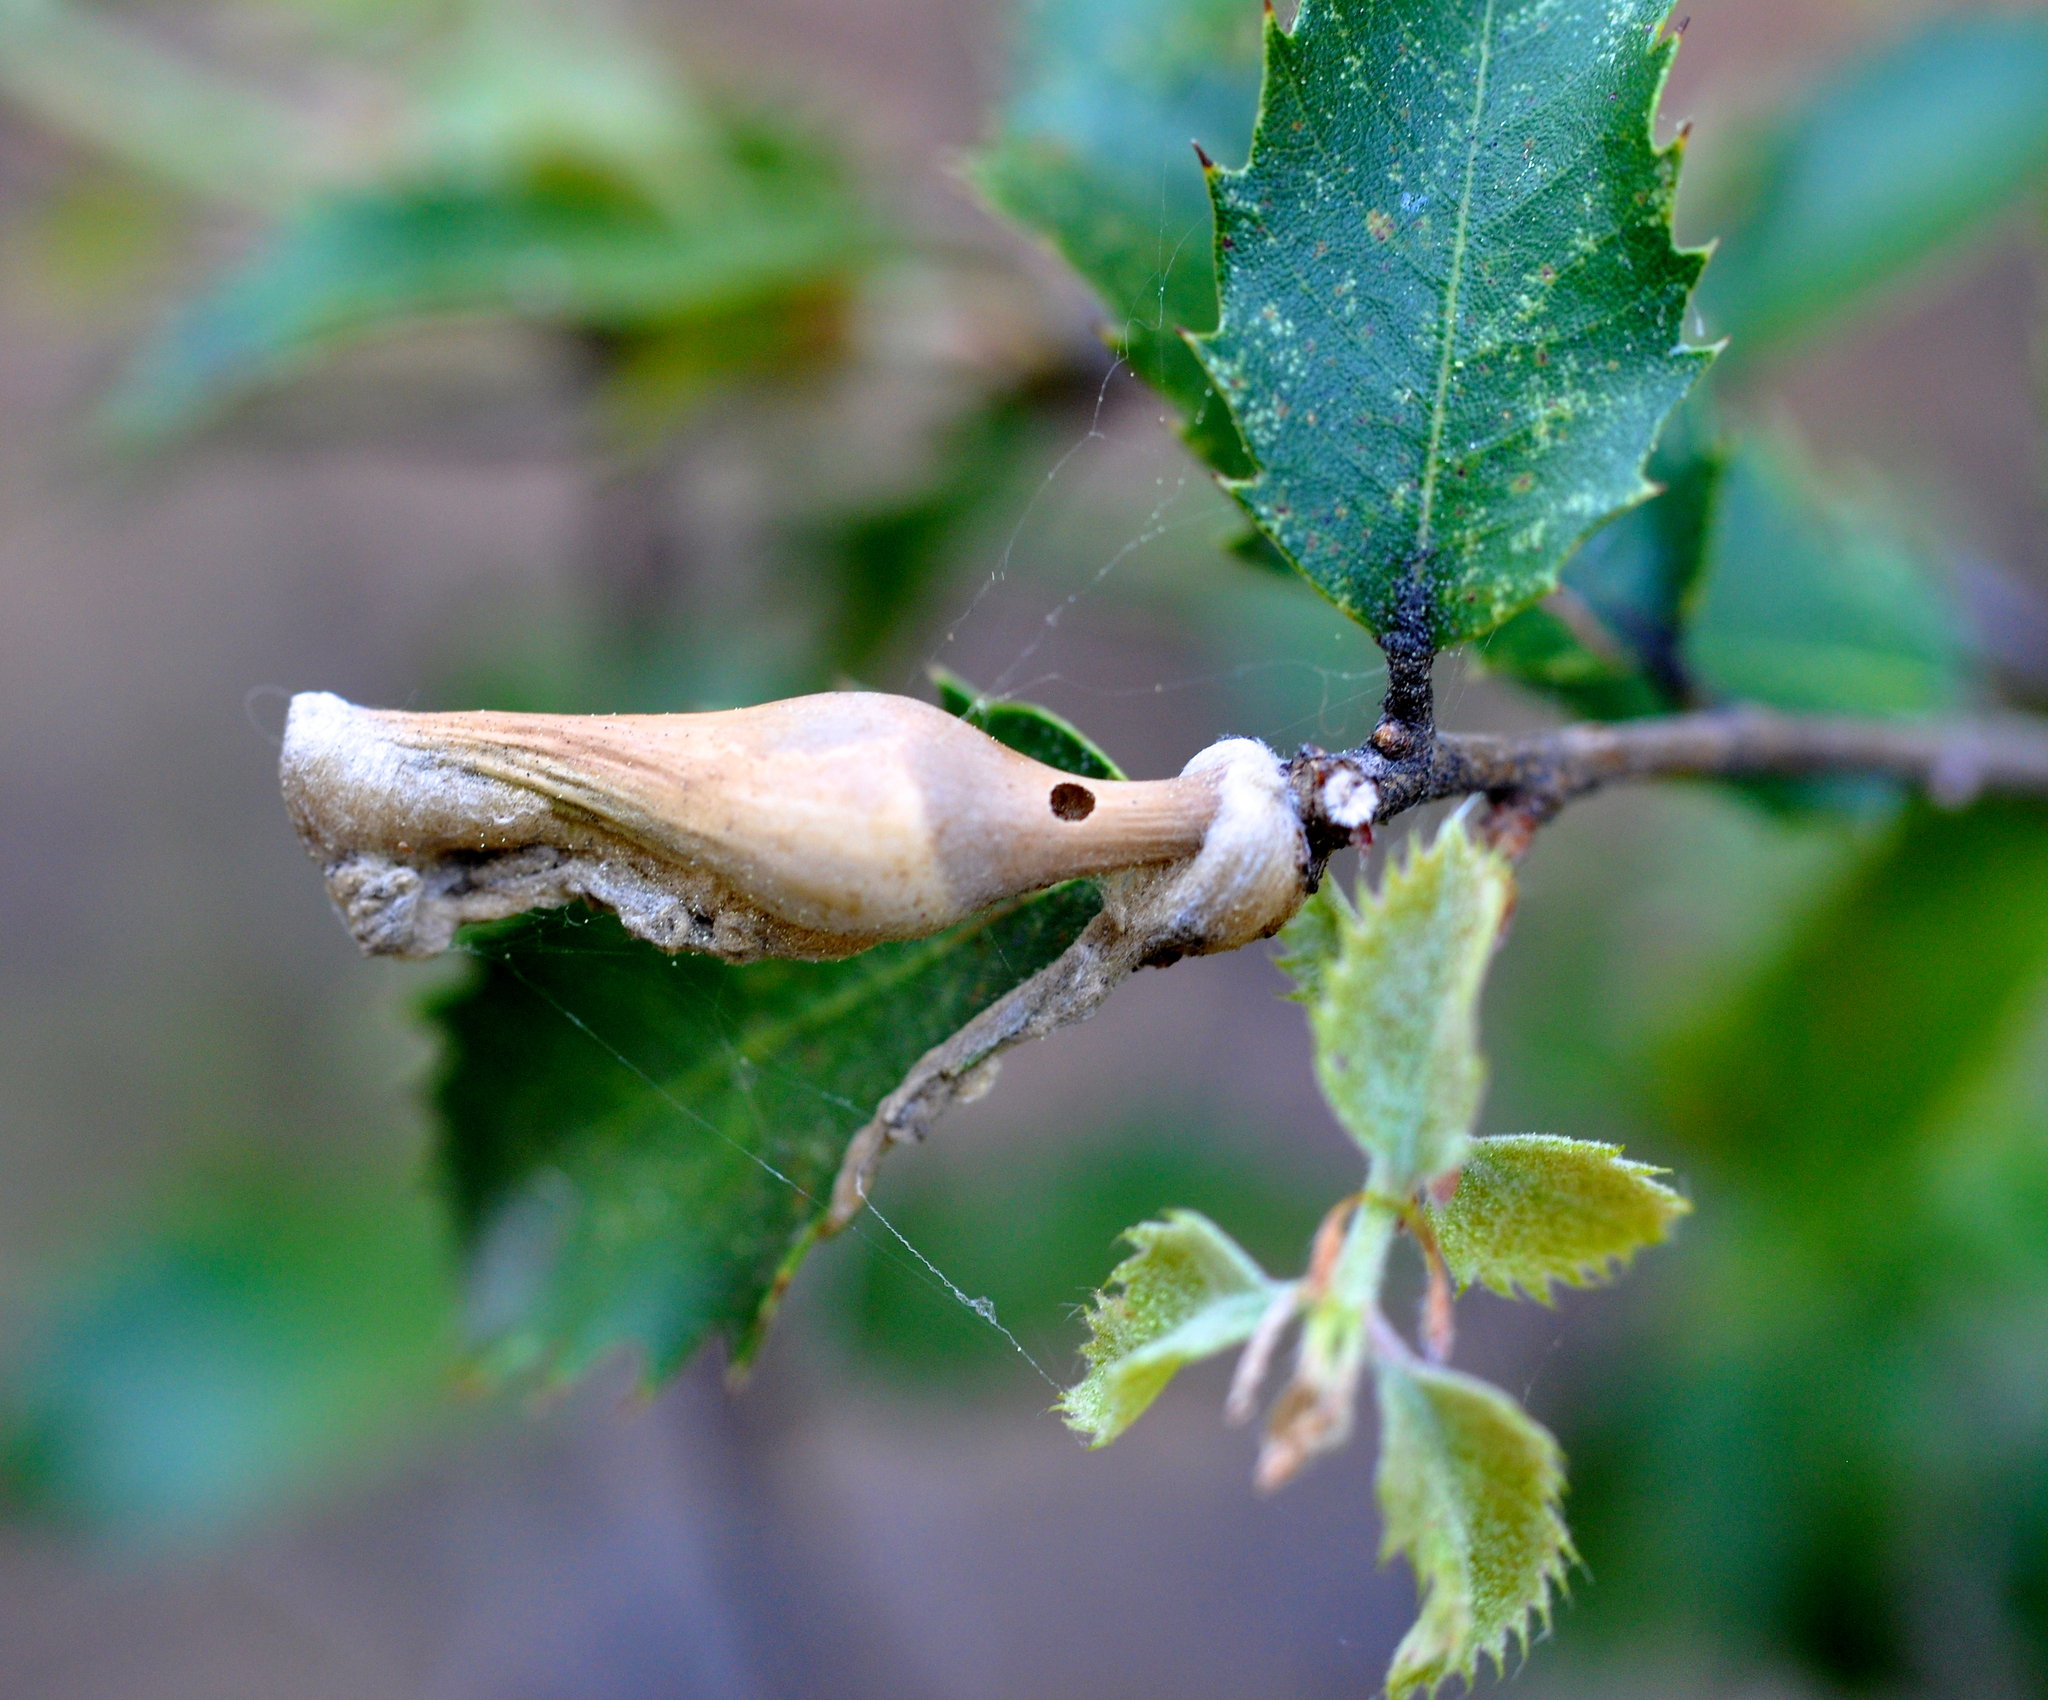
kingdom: Animalia
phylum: Arthropoda
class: Insecta
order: Hymenoptera
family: Cynipidae
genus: Heteroecus
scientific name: Heteroecus
